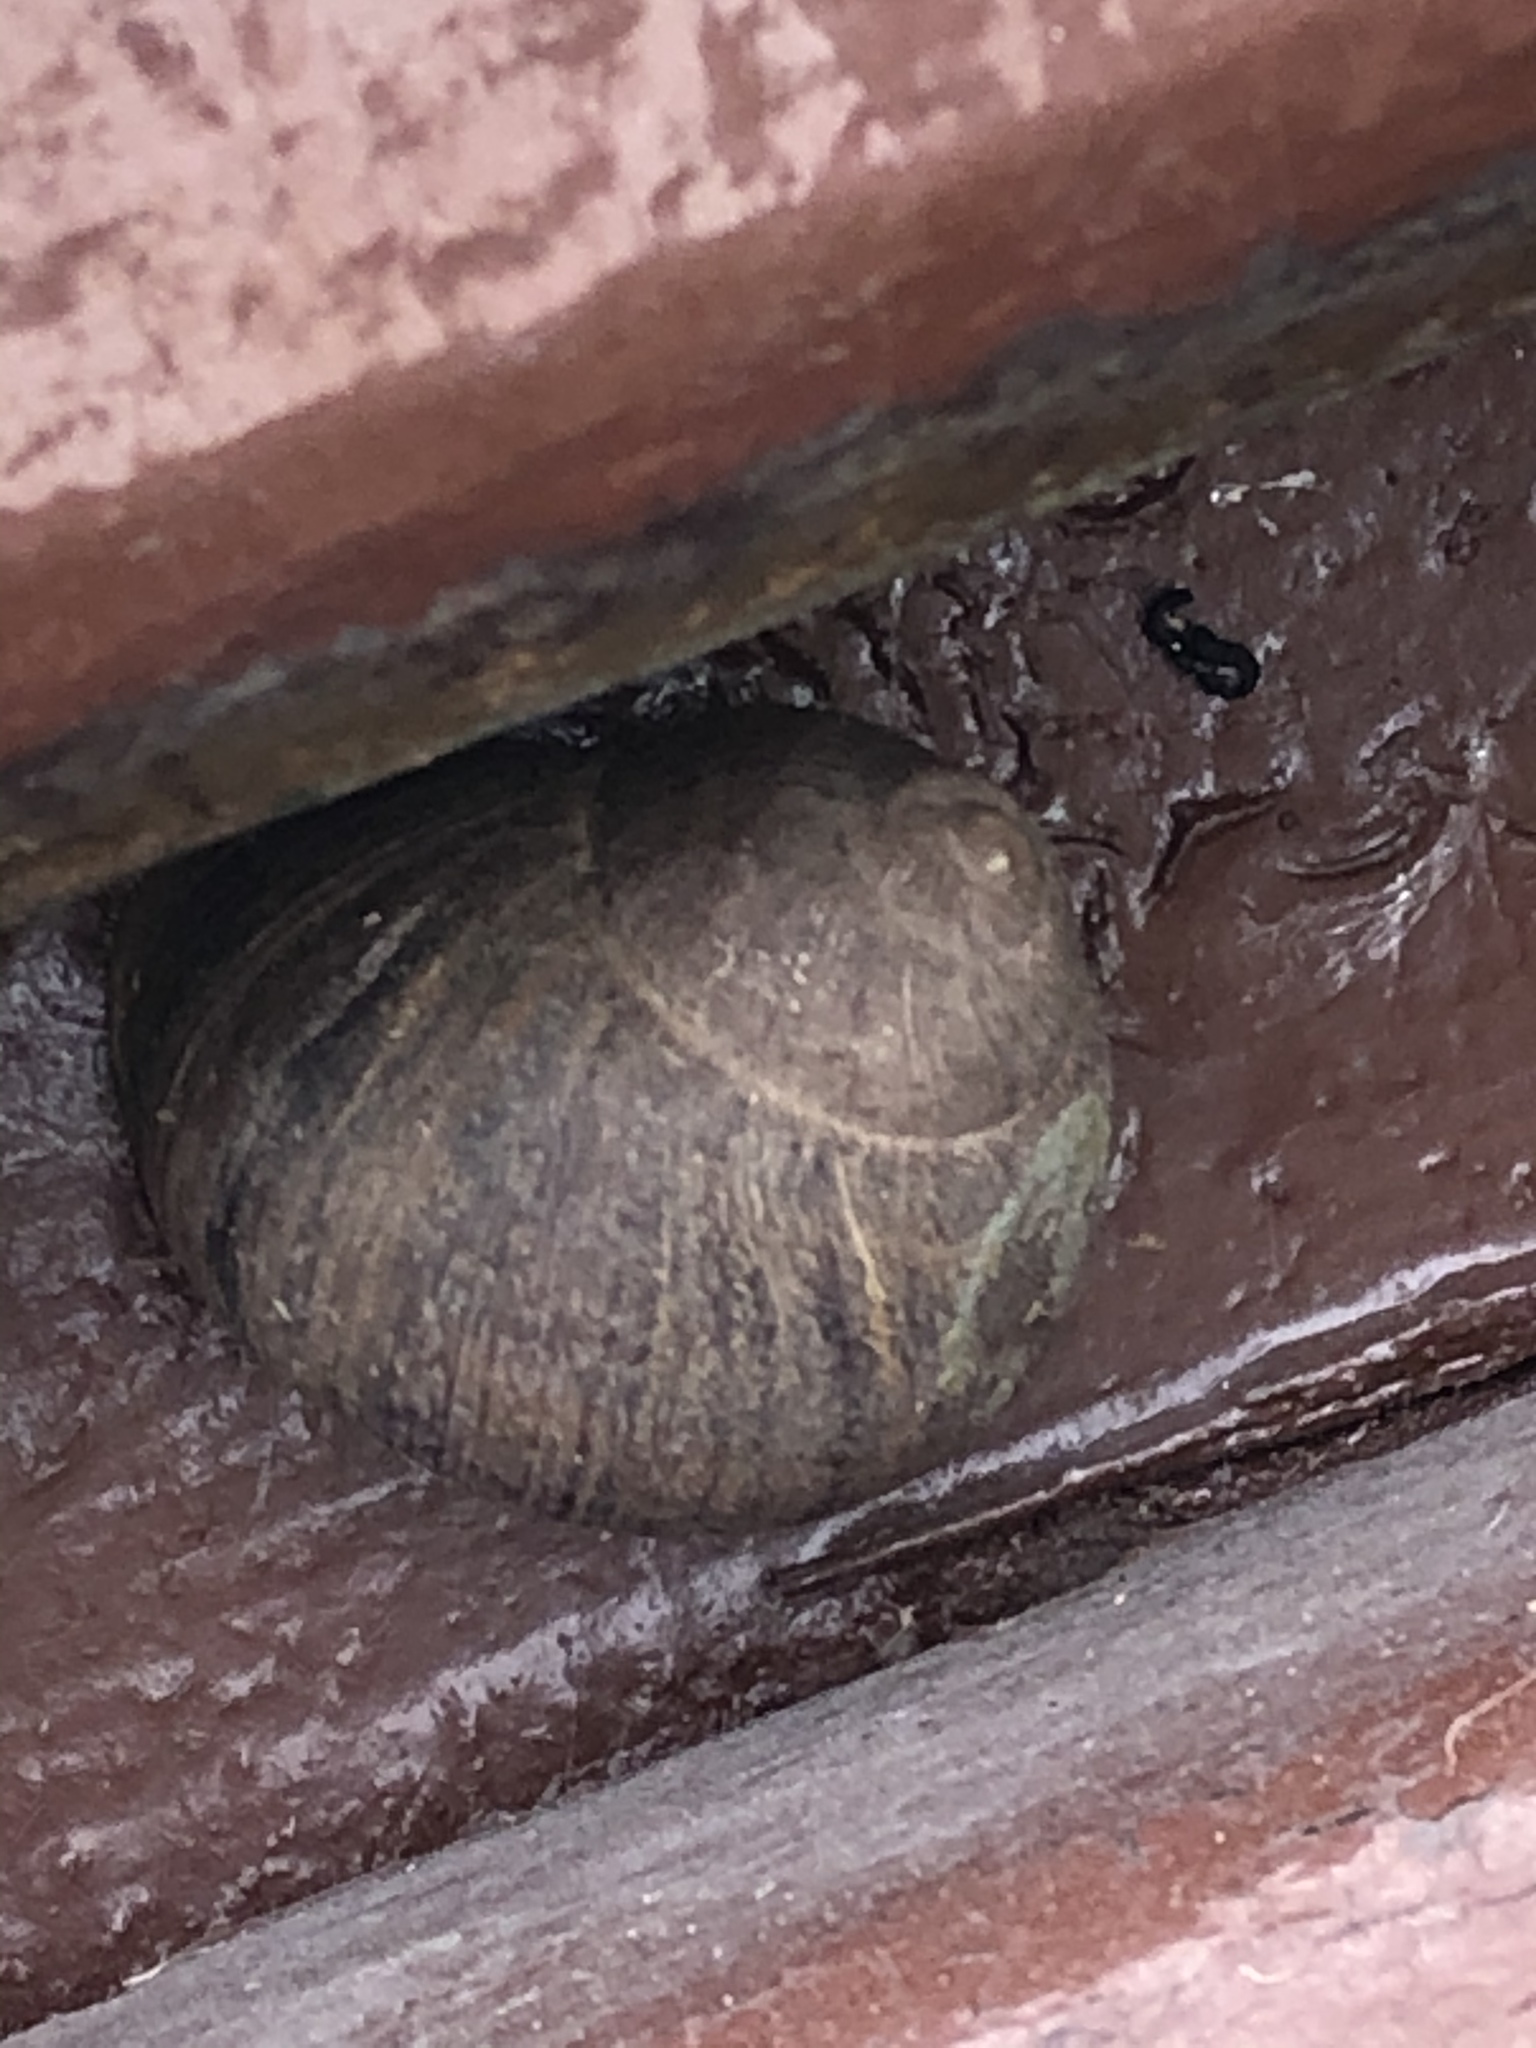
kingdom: Animalia
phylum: Mollusca
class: Gastropoda
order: Stylommatophora
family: Helicidae
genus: Cornu
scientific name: Cornu aspersum
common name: Brown garden snail
